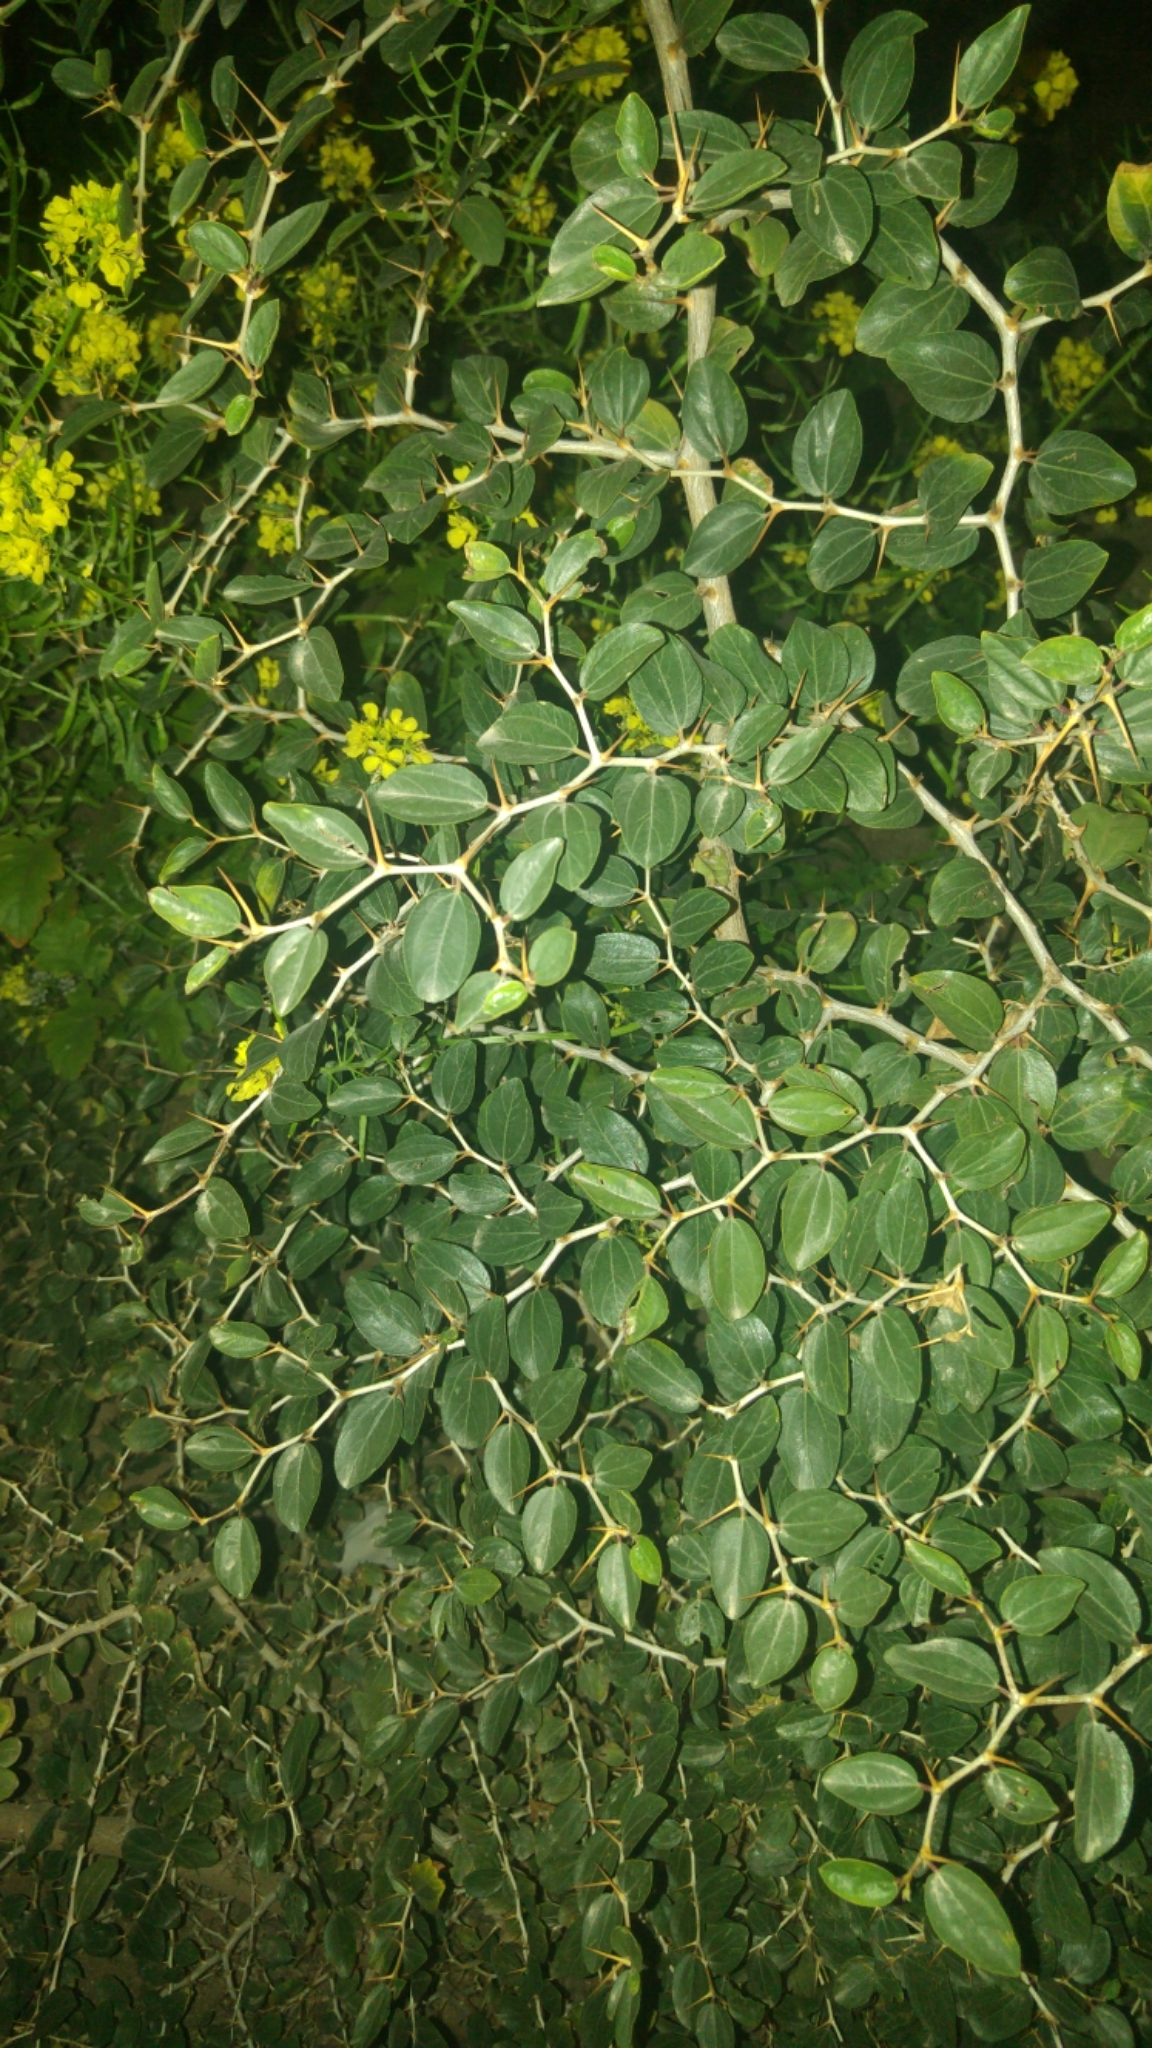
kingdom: Plantae
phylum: Tracheophyta
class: Magnoliopsida
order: Rosales
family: Rhamnaceae
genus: Ziziphus
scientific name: Ziziphus spina-christi
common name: Syrian christ-thorn
